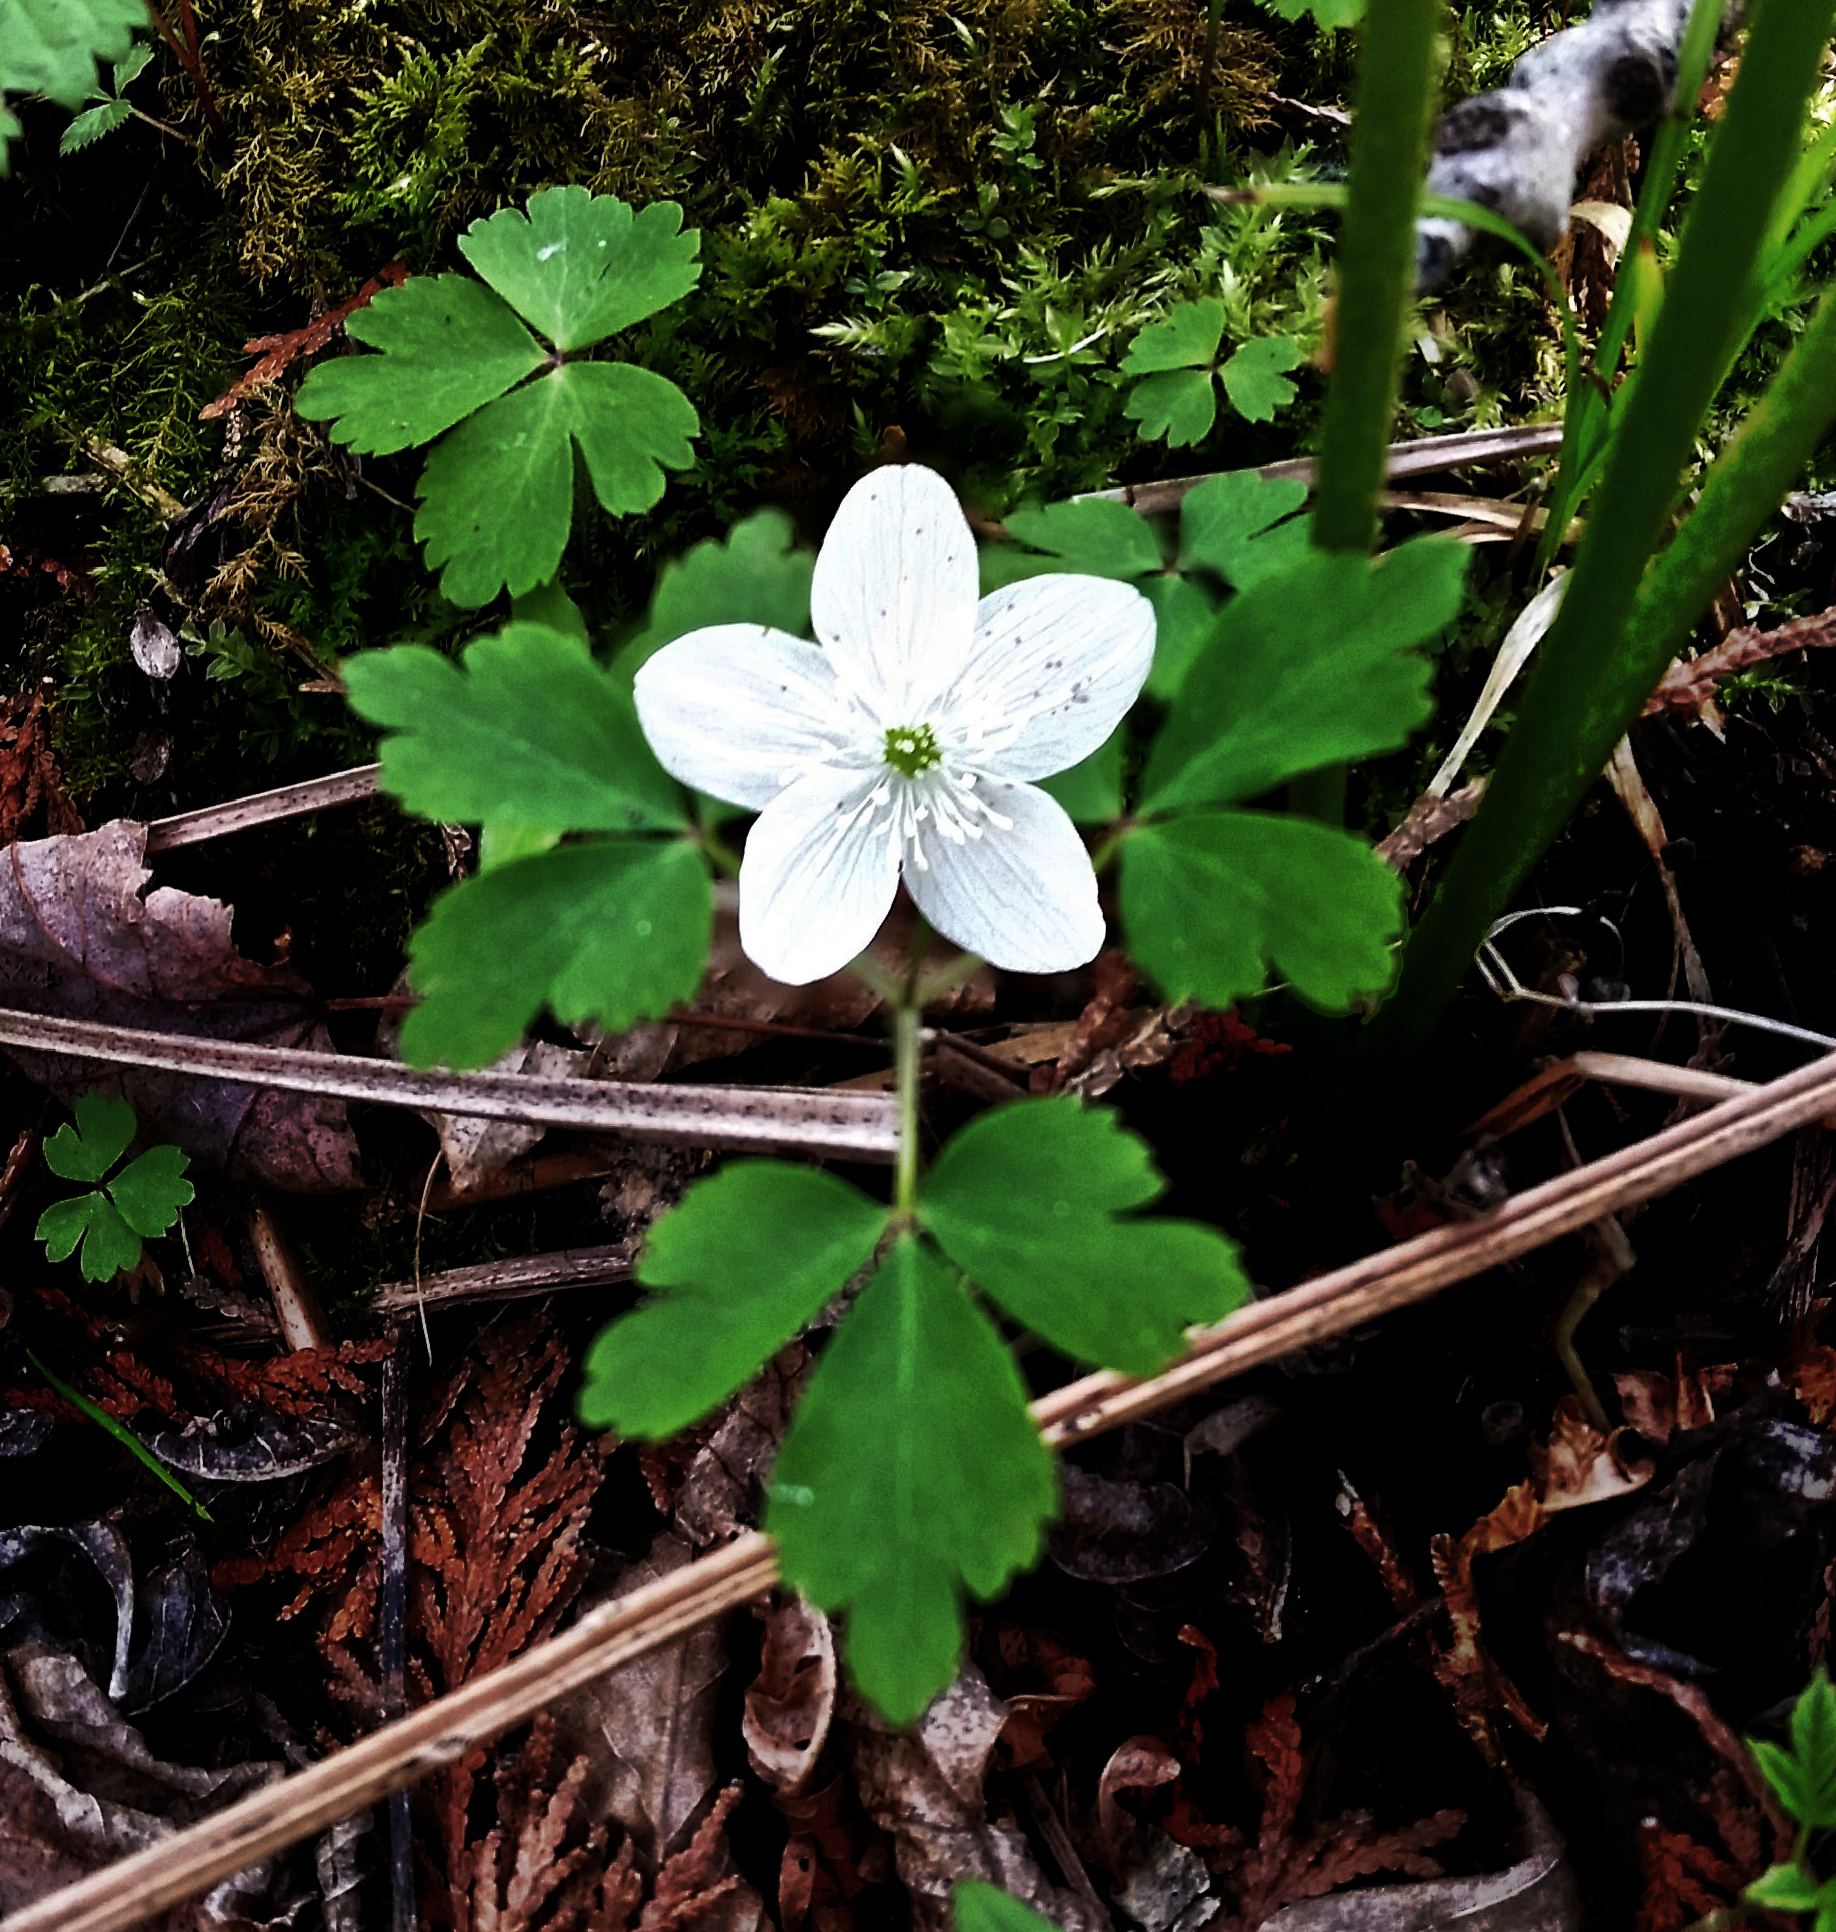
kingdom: Plantae
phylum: Tracheophyta
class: Magnoliopsida
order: Ranunculales
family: Ranunculaceae
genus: Anemone
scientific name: Anemone quinquefolia
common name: Wood anemone
